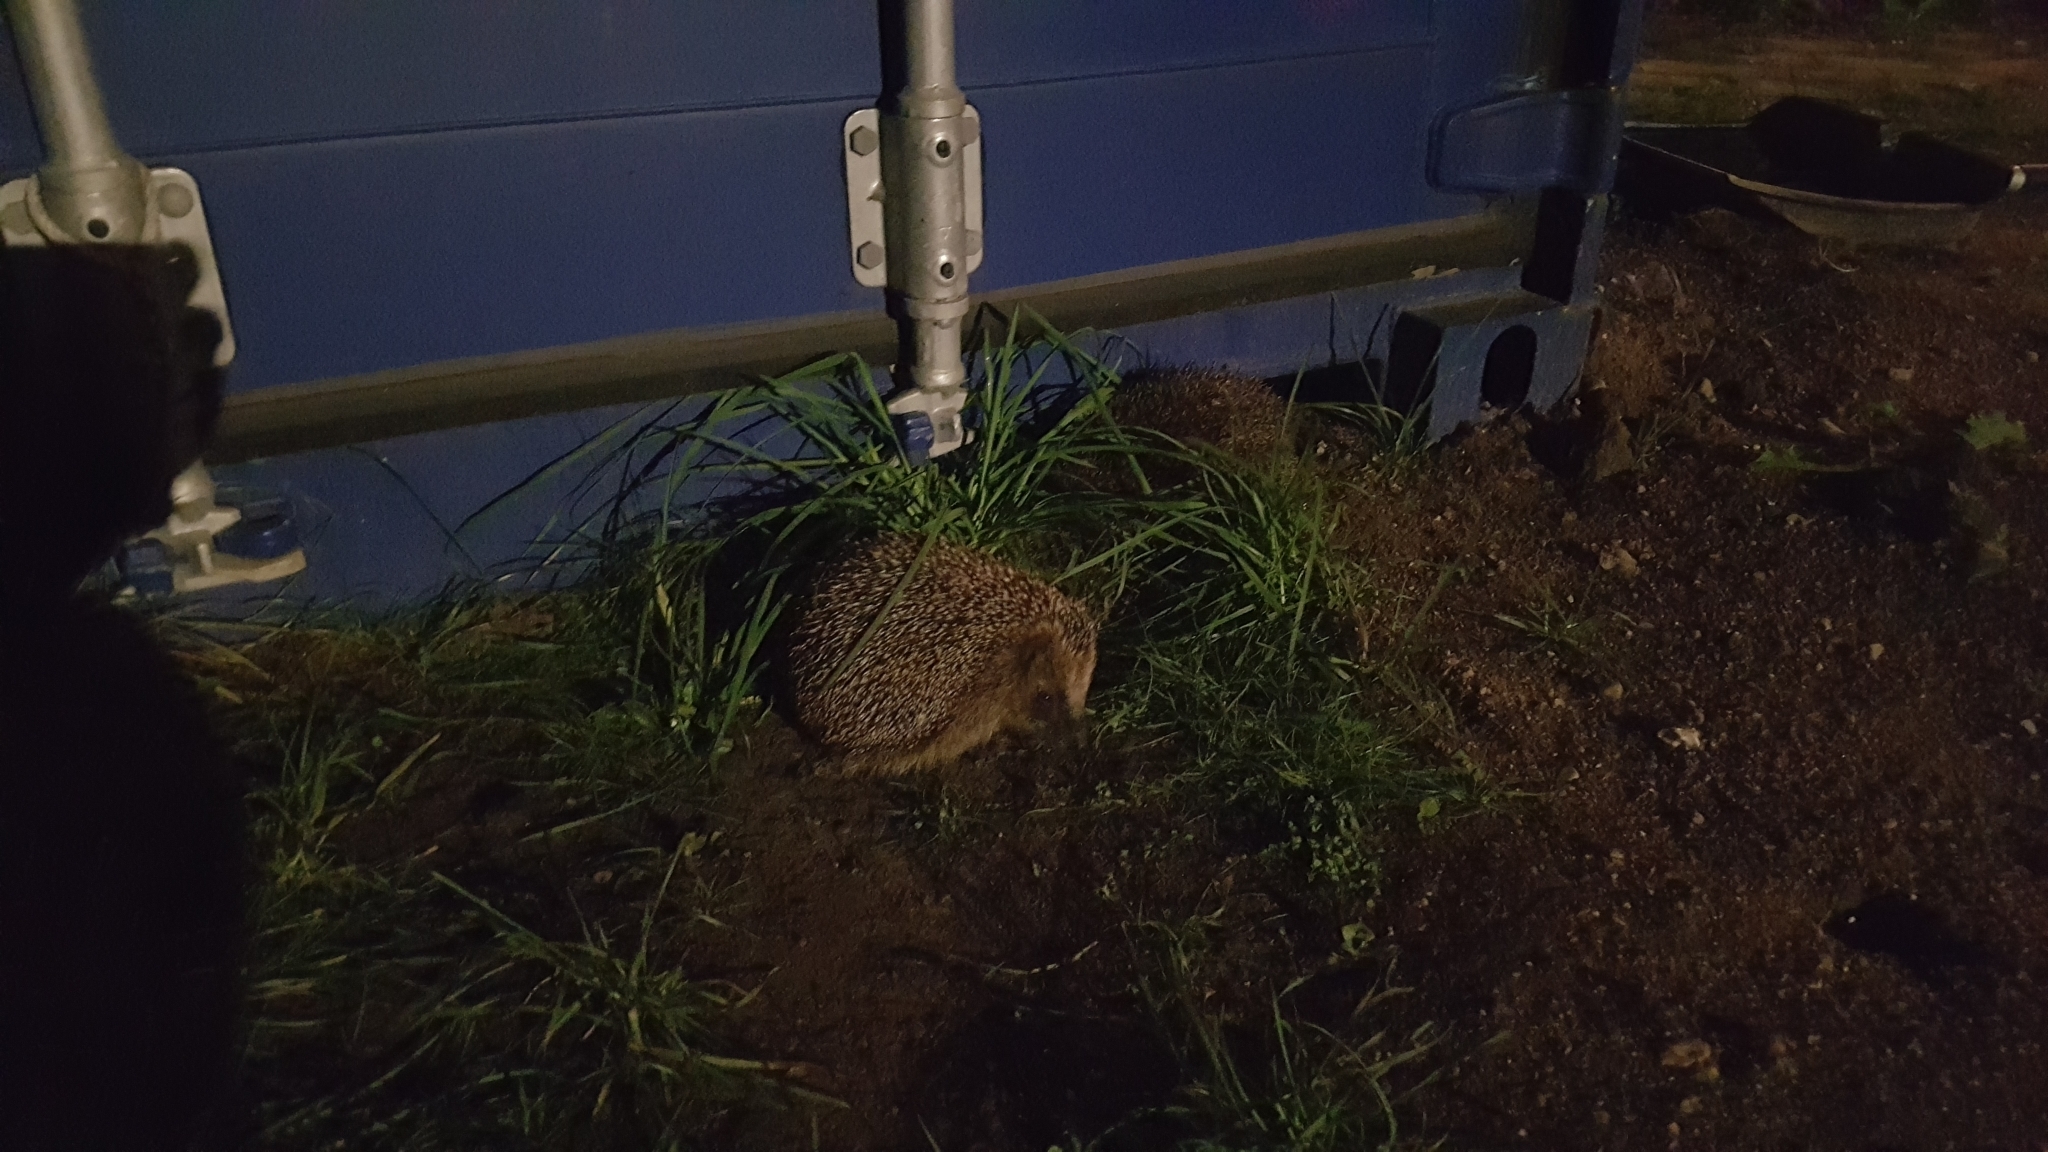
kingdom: Animalia
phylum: Chordata
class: Mammalia
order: Erinaceomorpha
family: Erinaceidae
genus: Erinaceus
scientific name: Erinaceus europaeus
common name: West european hedgehog
